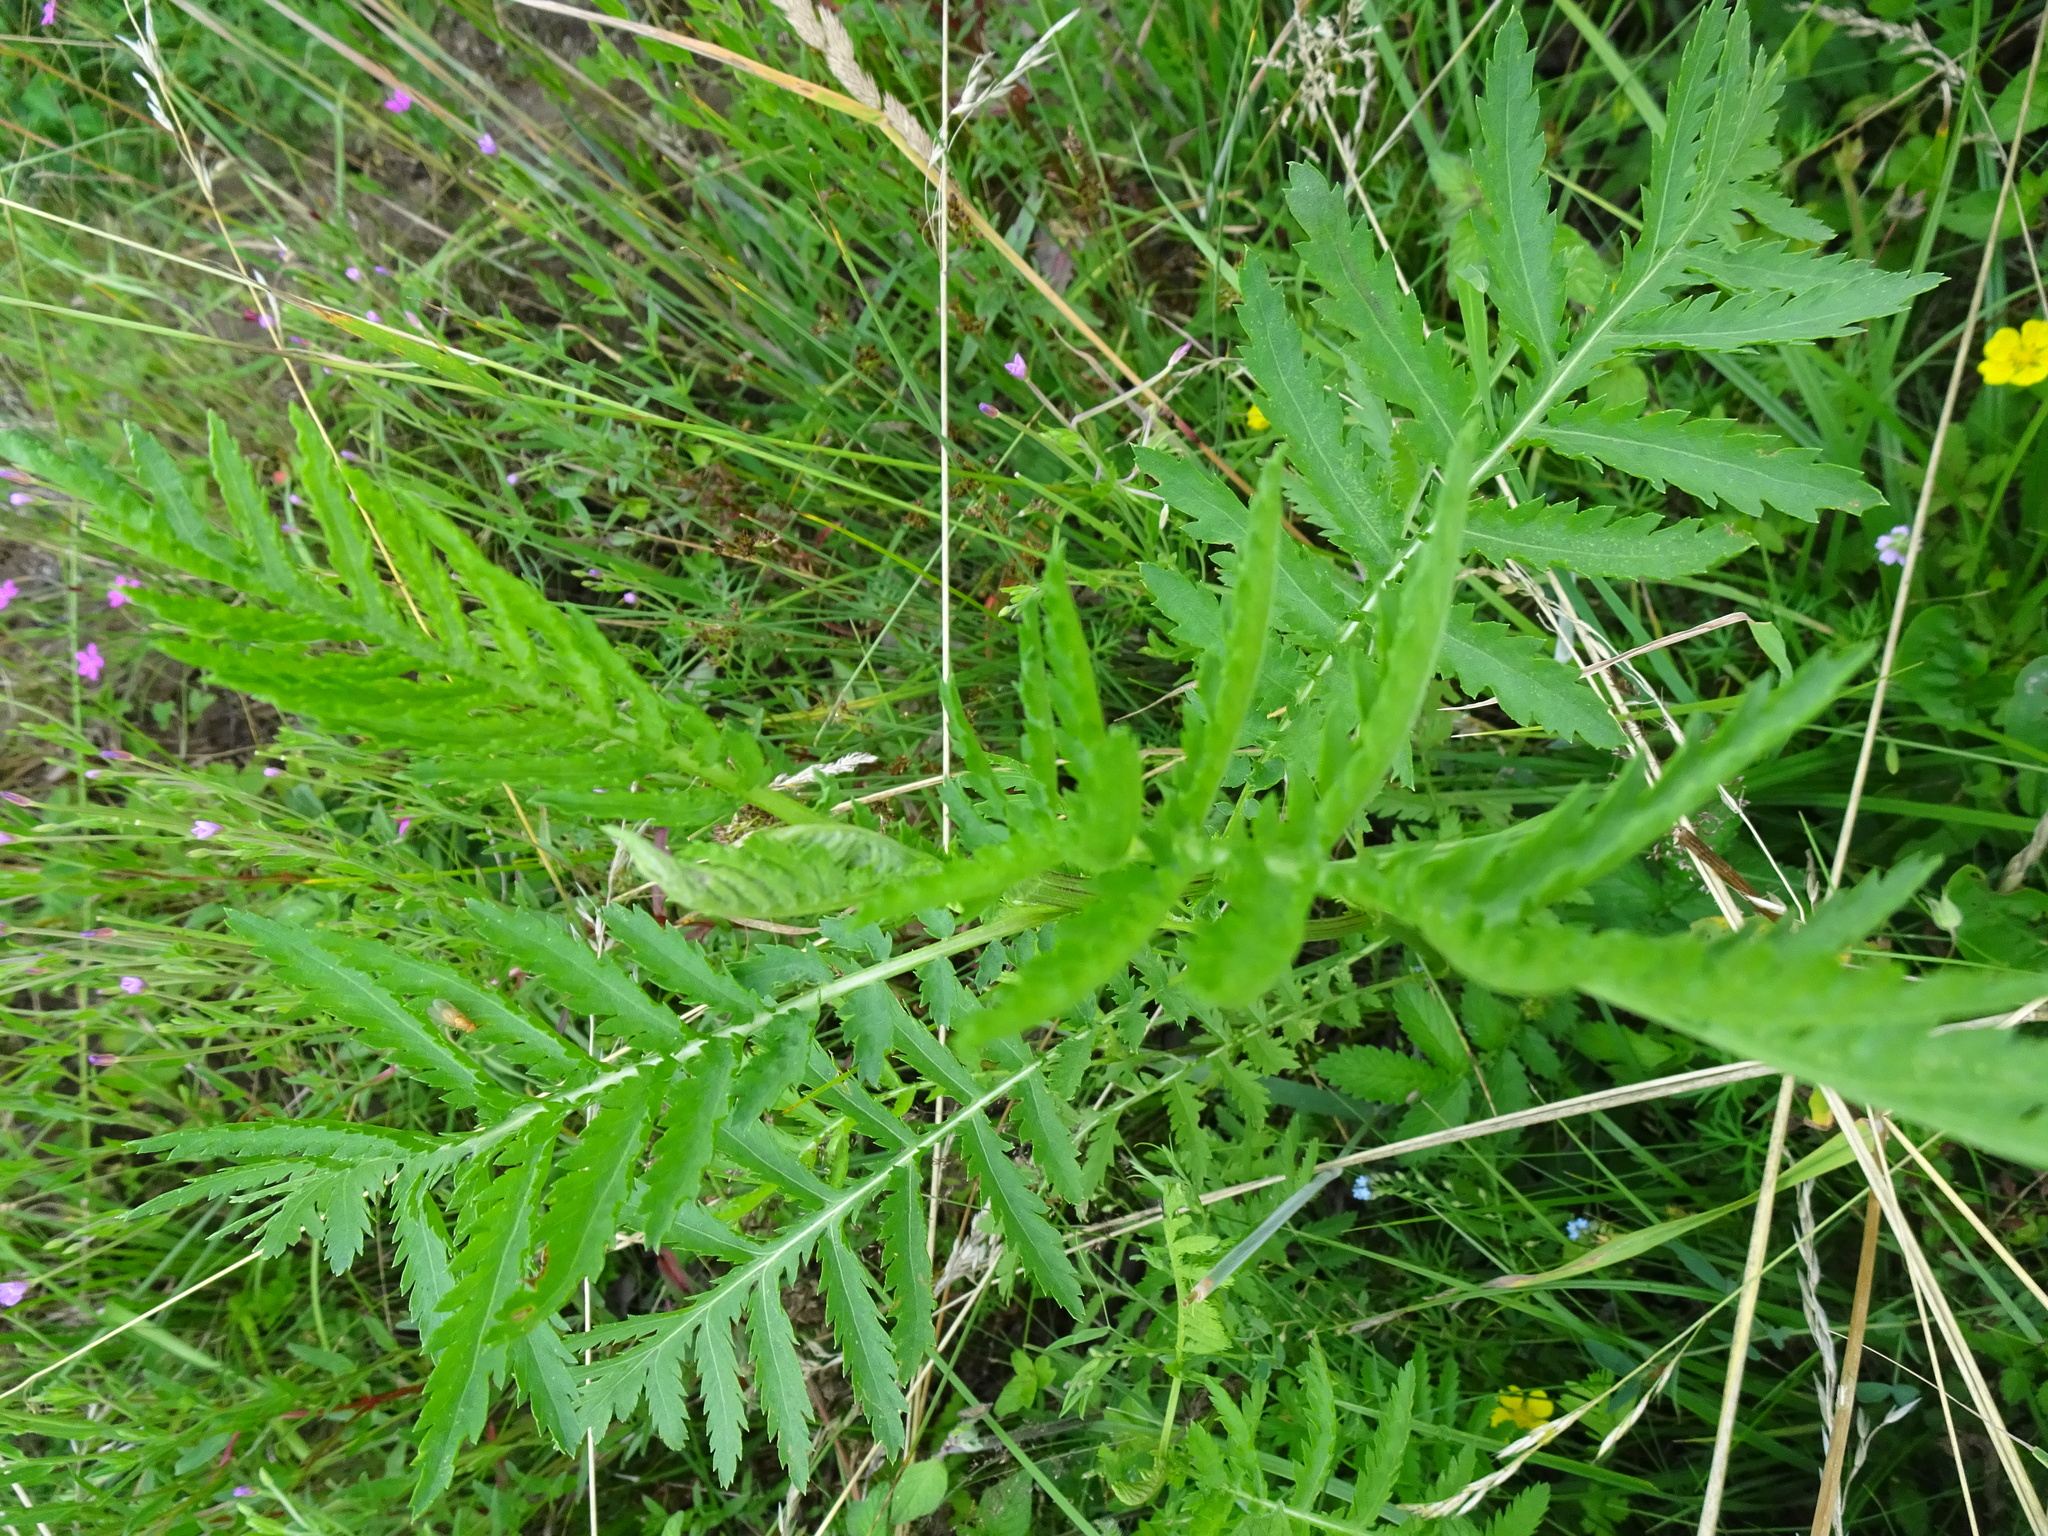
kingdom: Plantae
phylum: Tracheophyta
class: Magnoliopsida
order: Asterales
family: Asteraceae
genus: Tanacetum
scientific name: Tanacetum vulgare
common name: Common tansy
